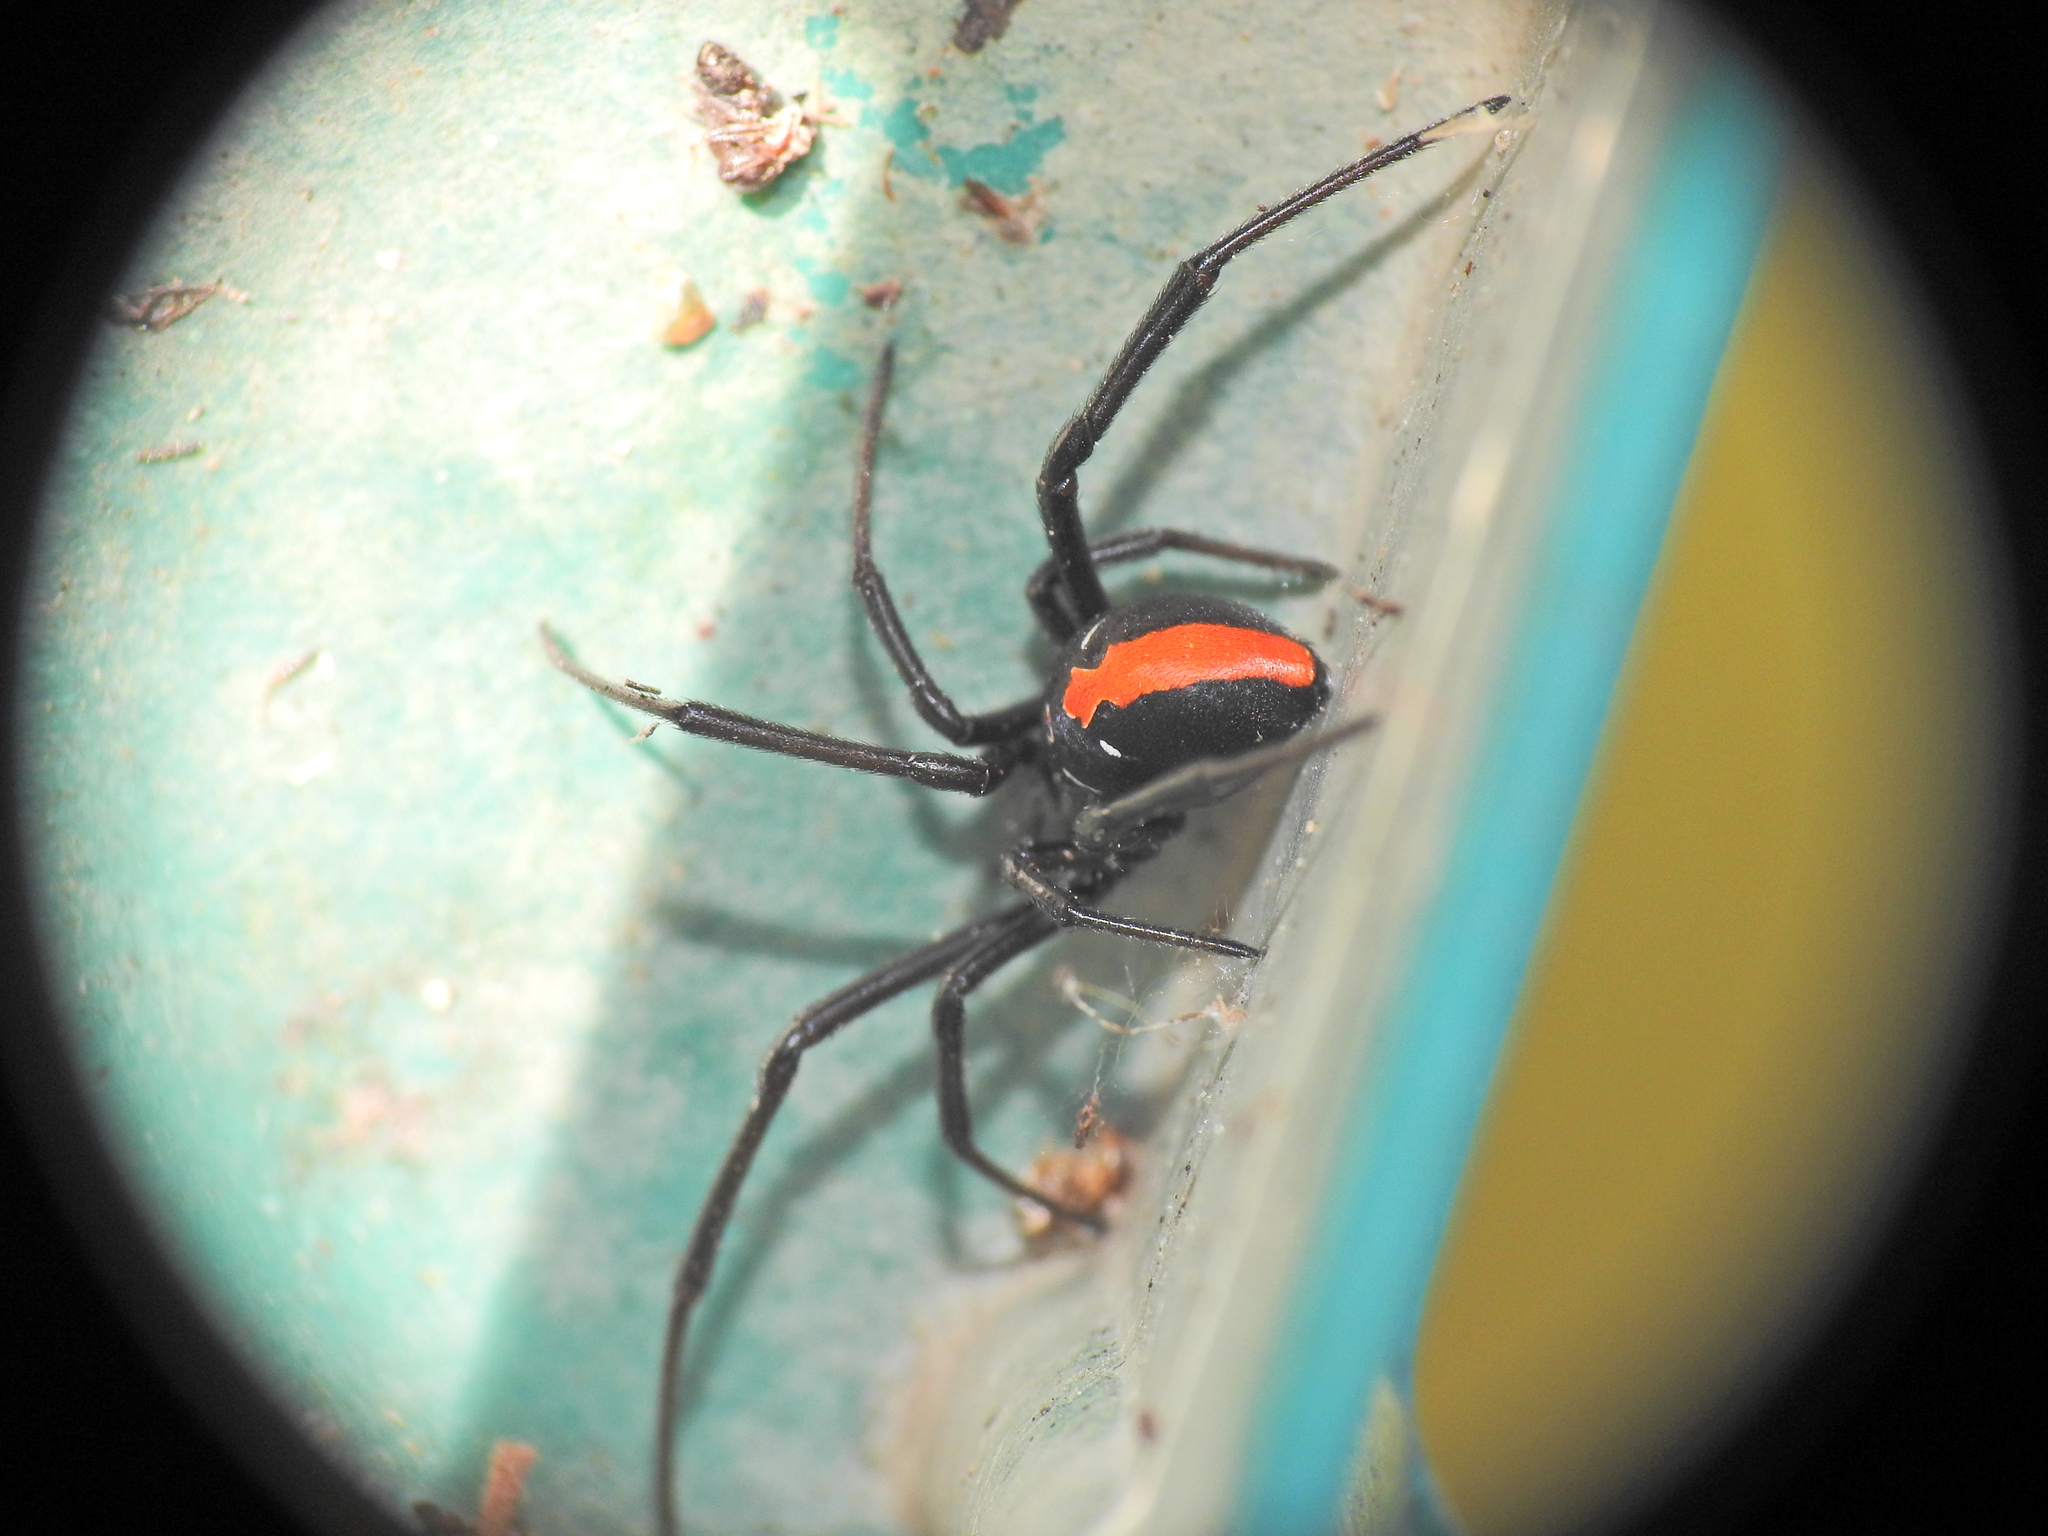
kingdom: Animalia
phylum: Arthropoda
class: Arachnida
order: Araneae
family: Theridiidae
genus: Latrodectus
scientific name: Latrodectus hasselti
